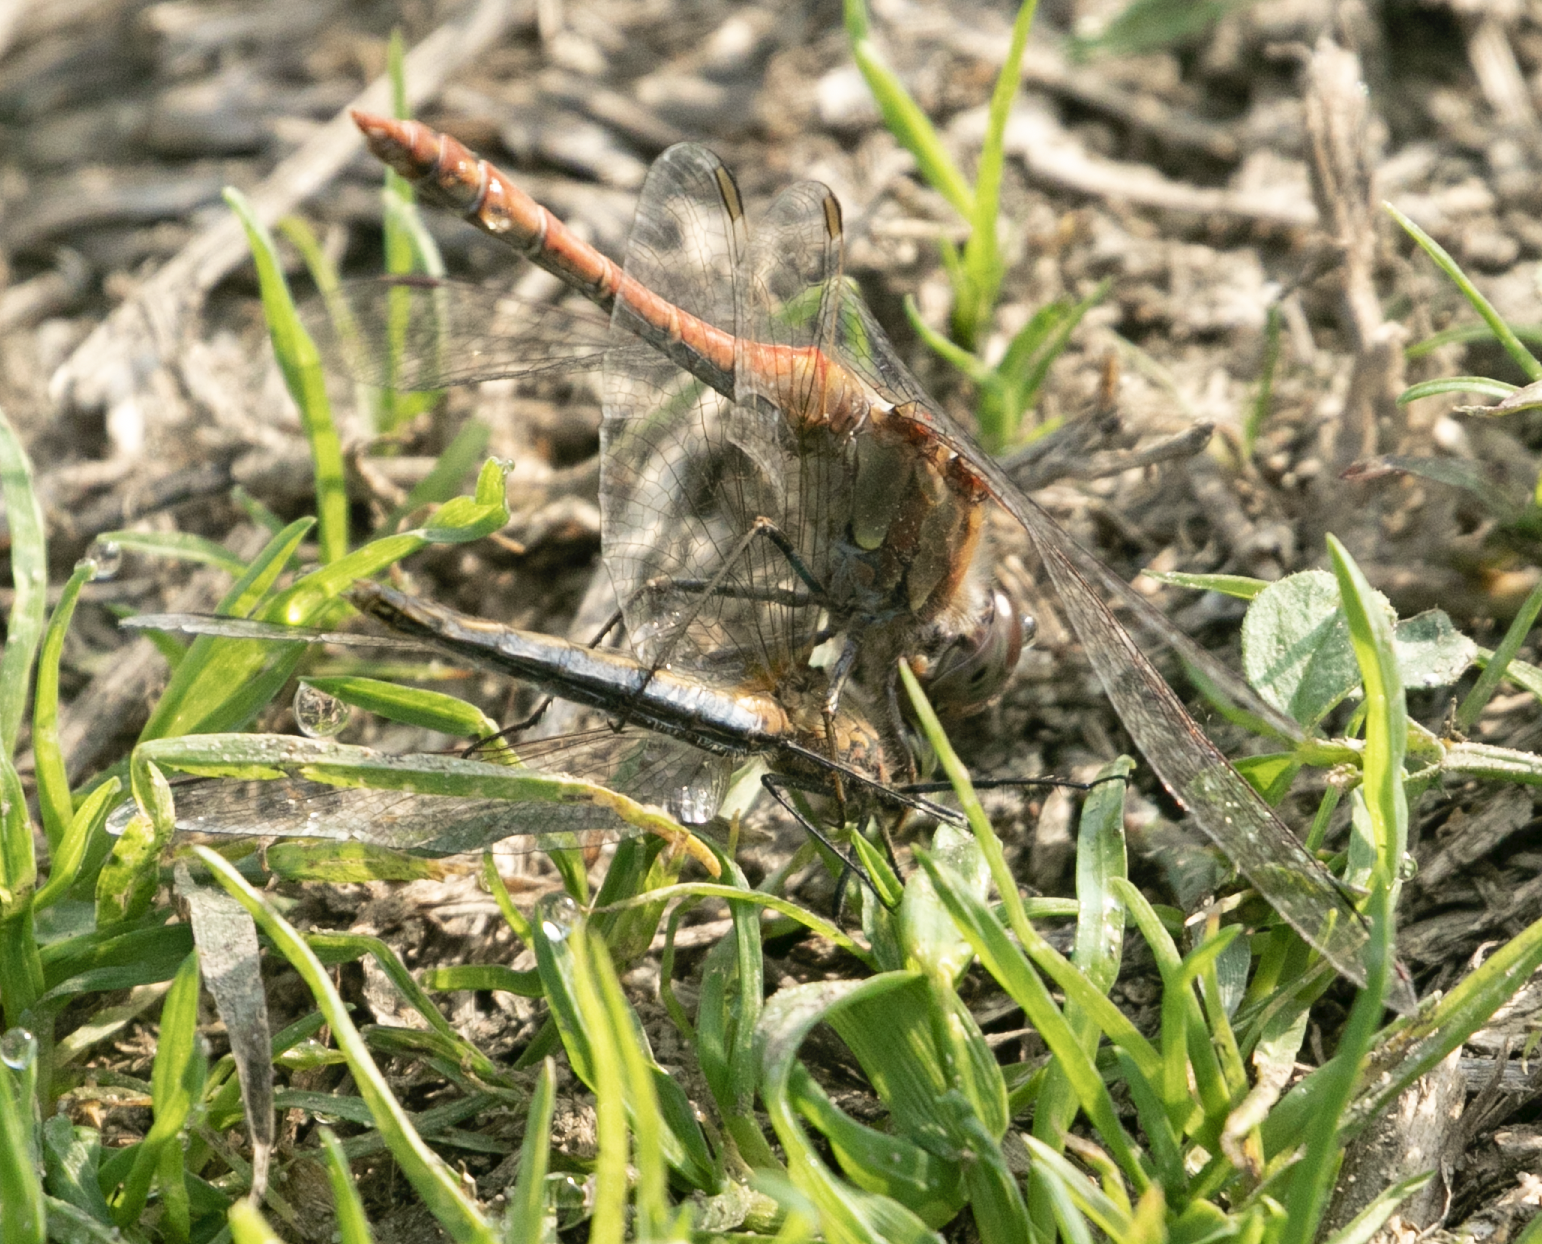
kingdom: Animalia
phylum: Arthropoda
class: Insecta
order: Odonata
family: Libellulidae
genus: Sympetrum
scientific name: Sympetrum striolatum
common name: Common darter
